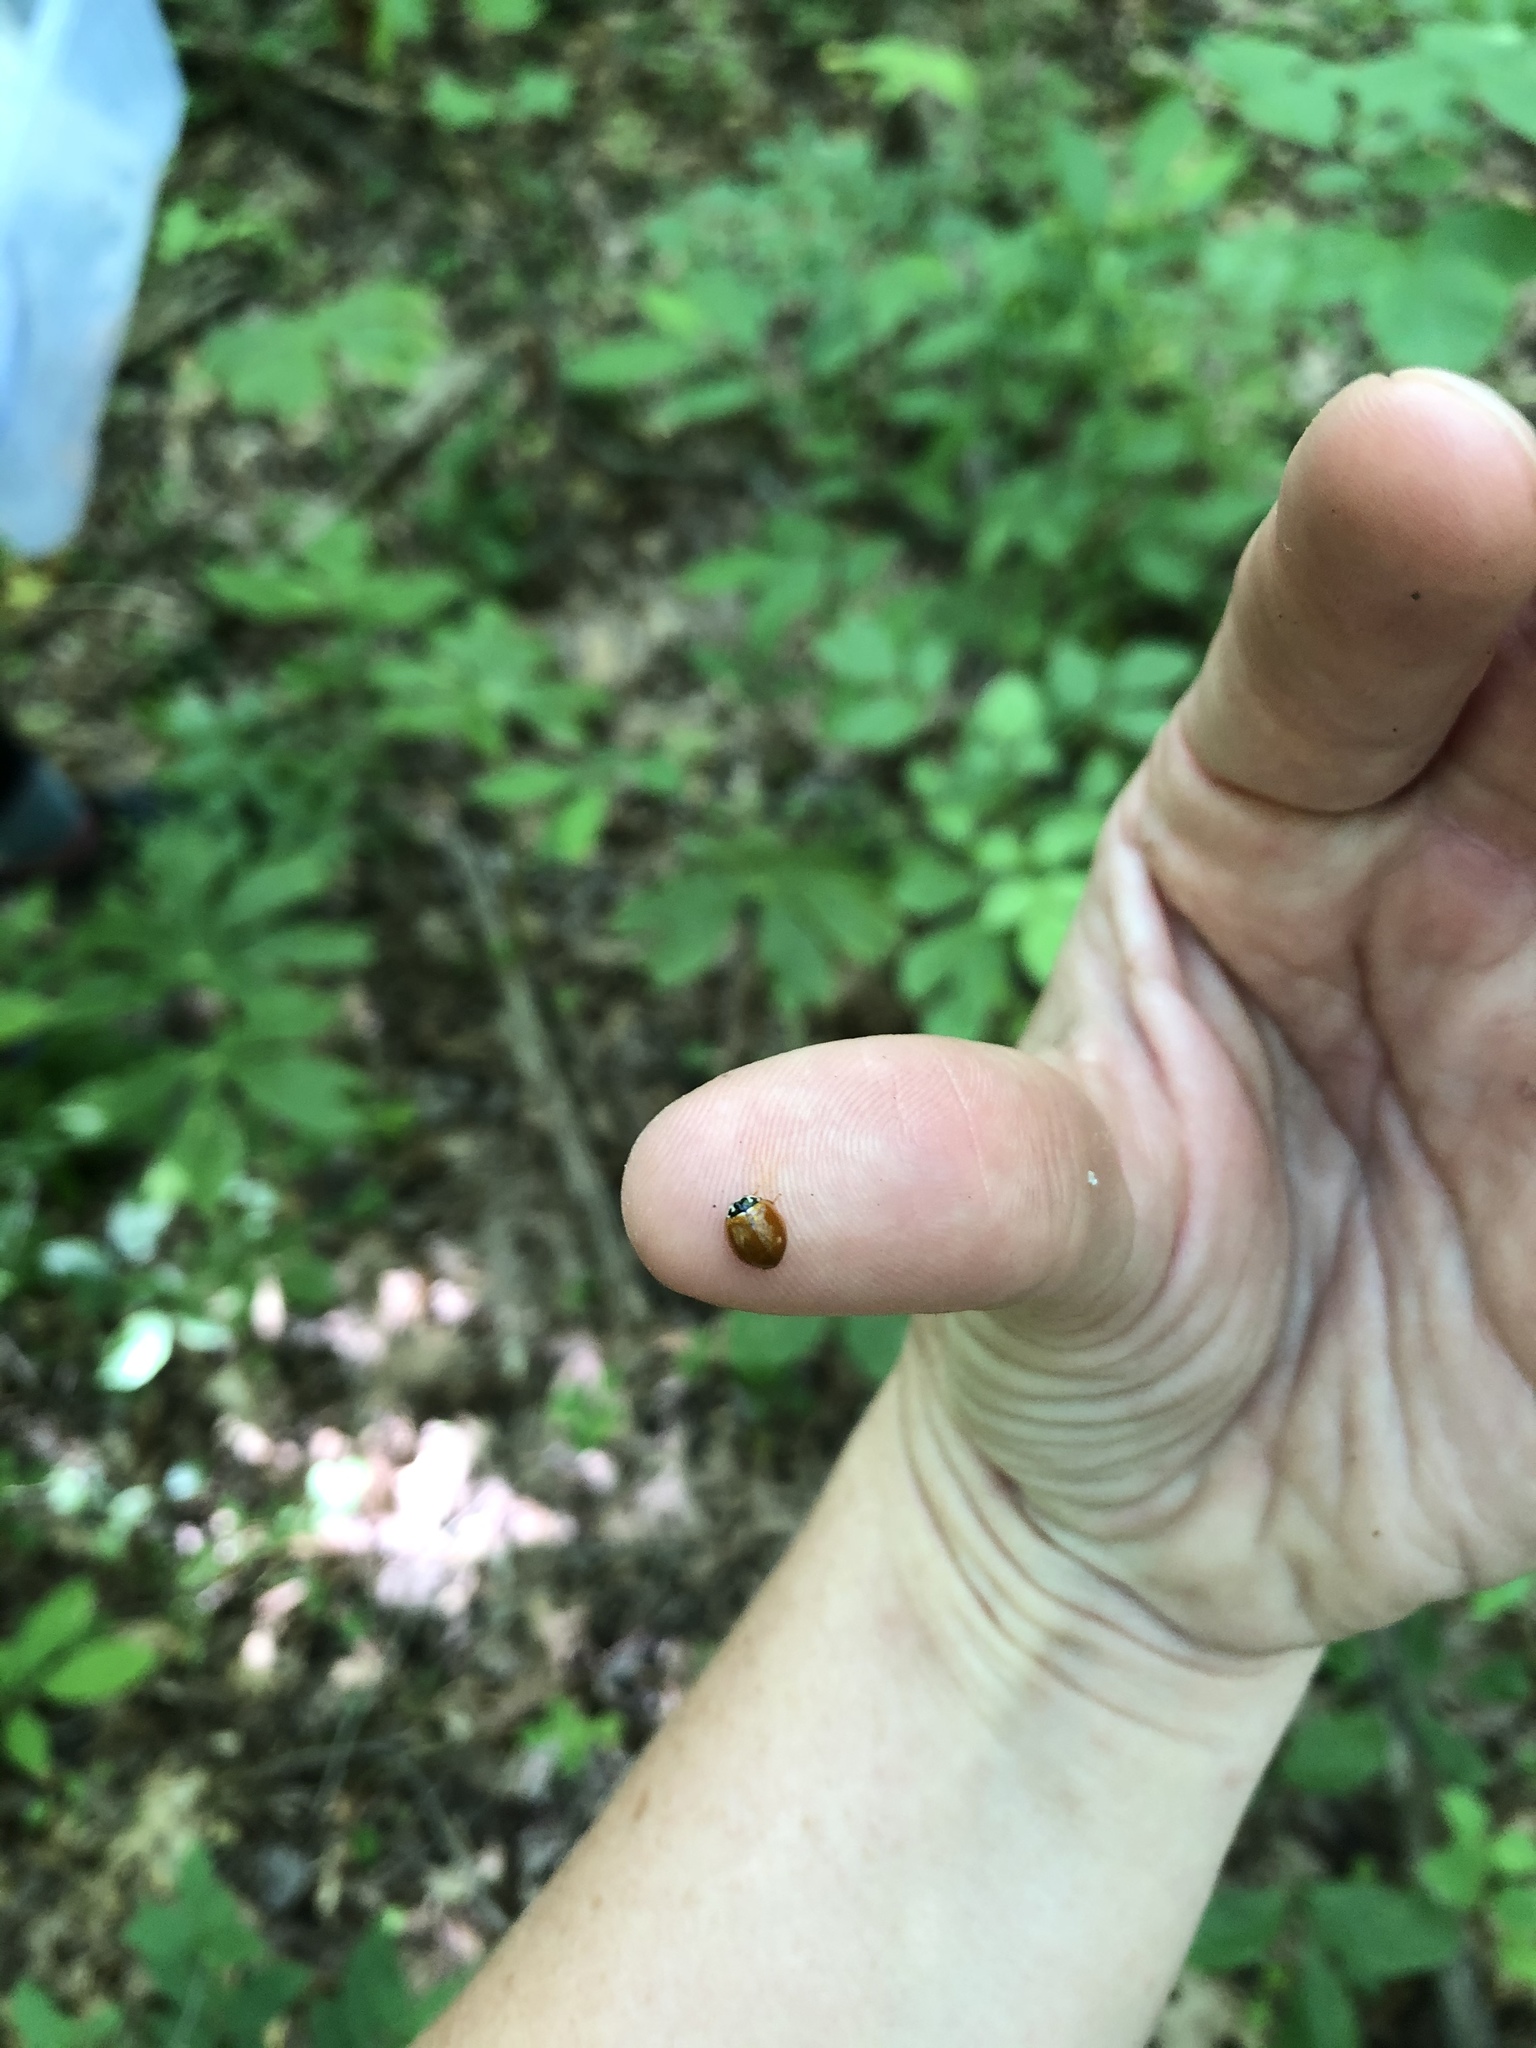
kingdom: Animalia
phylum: Arthropoda
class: Insecta
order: Coleoptera
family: Coccinellidae
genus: Cycloneda
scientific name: Cycloneda munda
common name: Polished lady beetle
